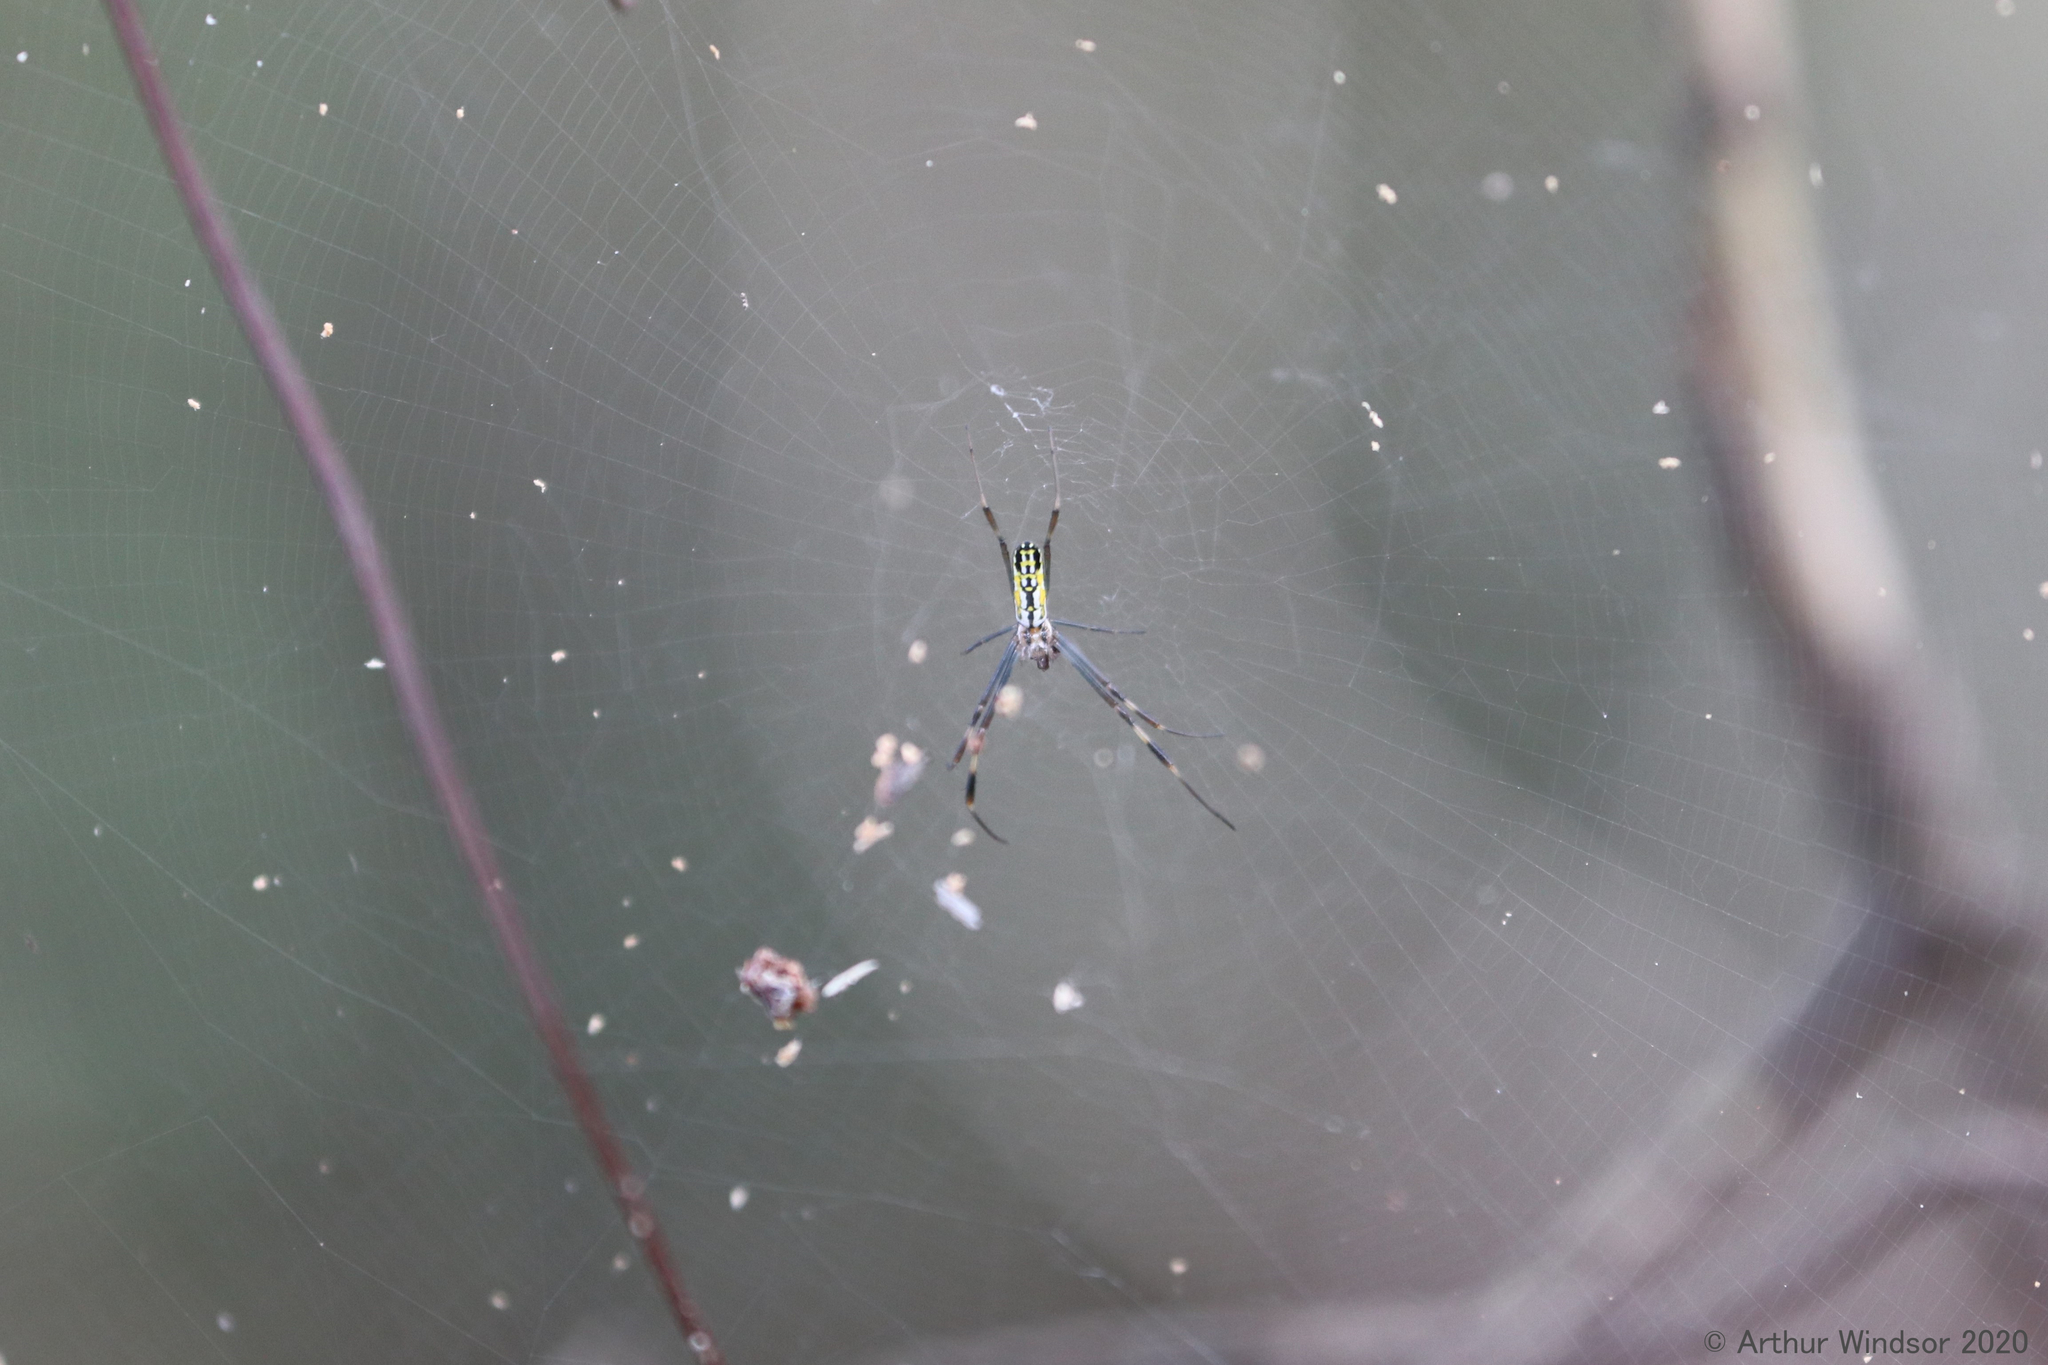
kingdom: Animalia
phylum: Arthropoda
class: Arachnida
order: Araneae
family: Araneidae
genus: Trichonephila
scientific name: Trichonephila clavipes
